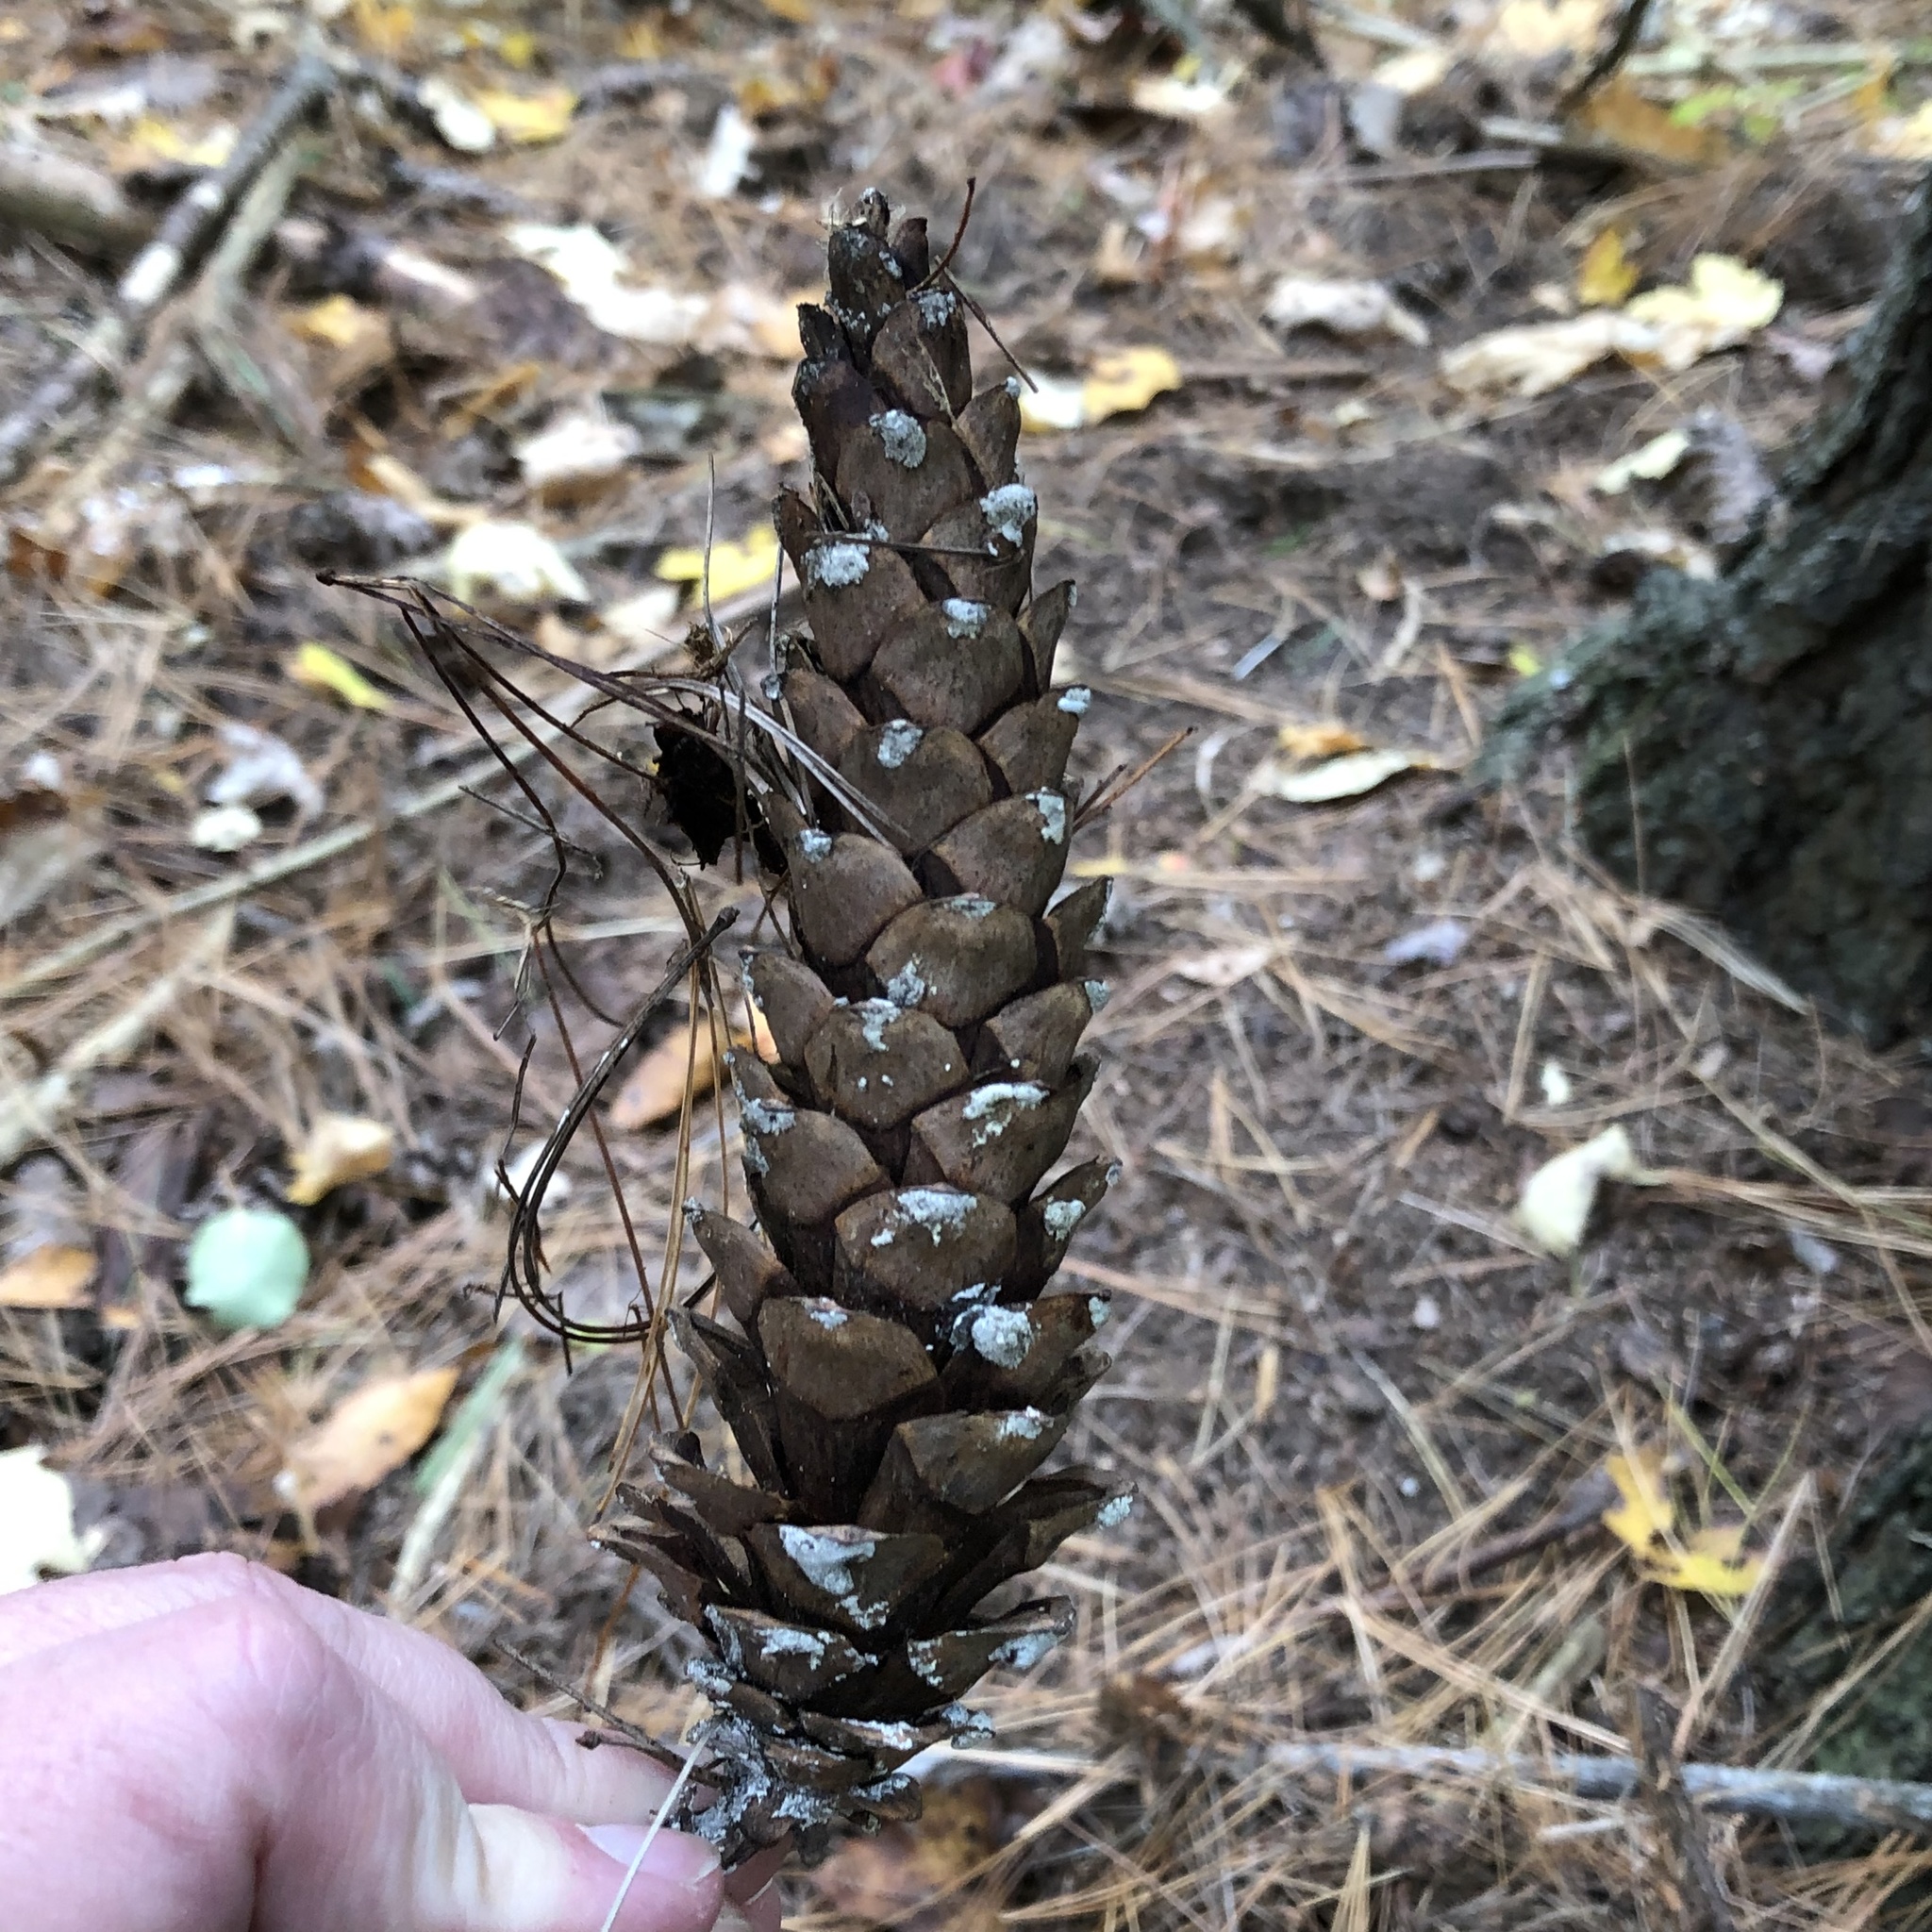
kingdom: Plantae
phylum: Tracheophyta
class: Pinopsida
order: Pinales
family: Pinaceae
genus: Pinus
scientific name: Pinus strobus
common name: Weymouth pine
